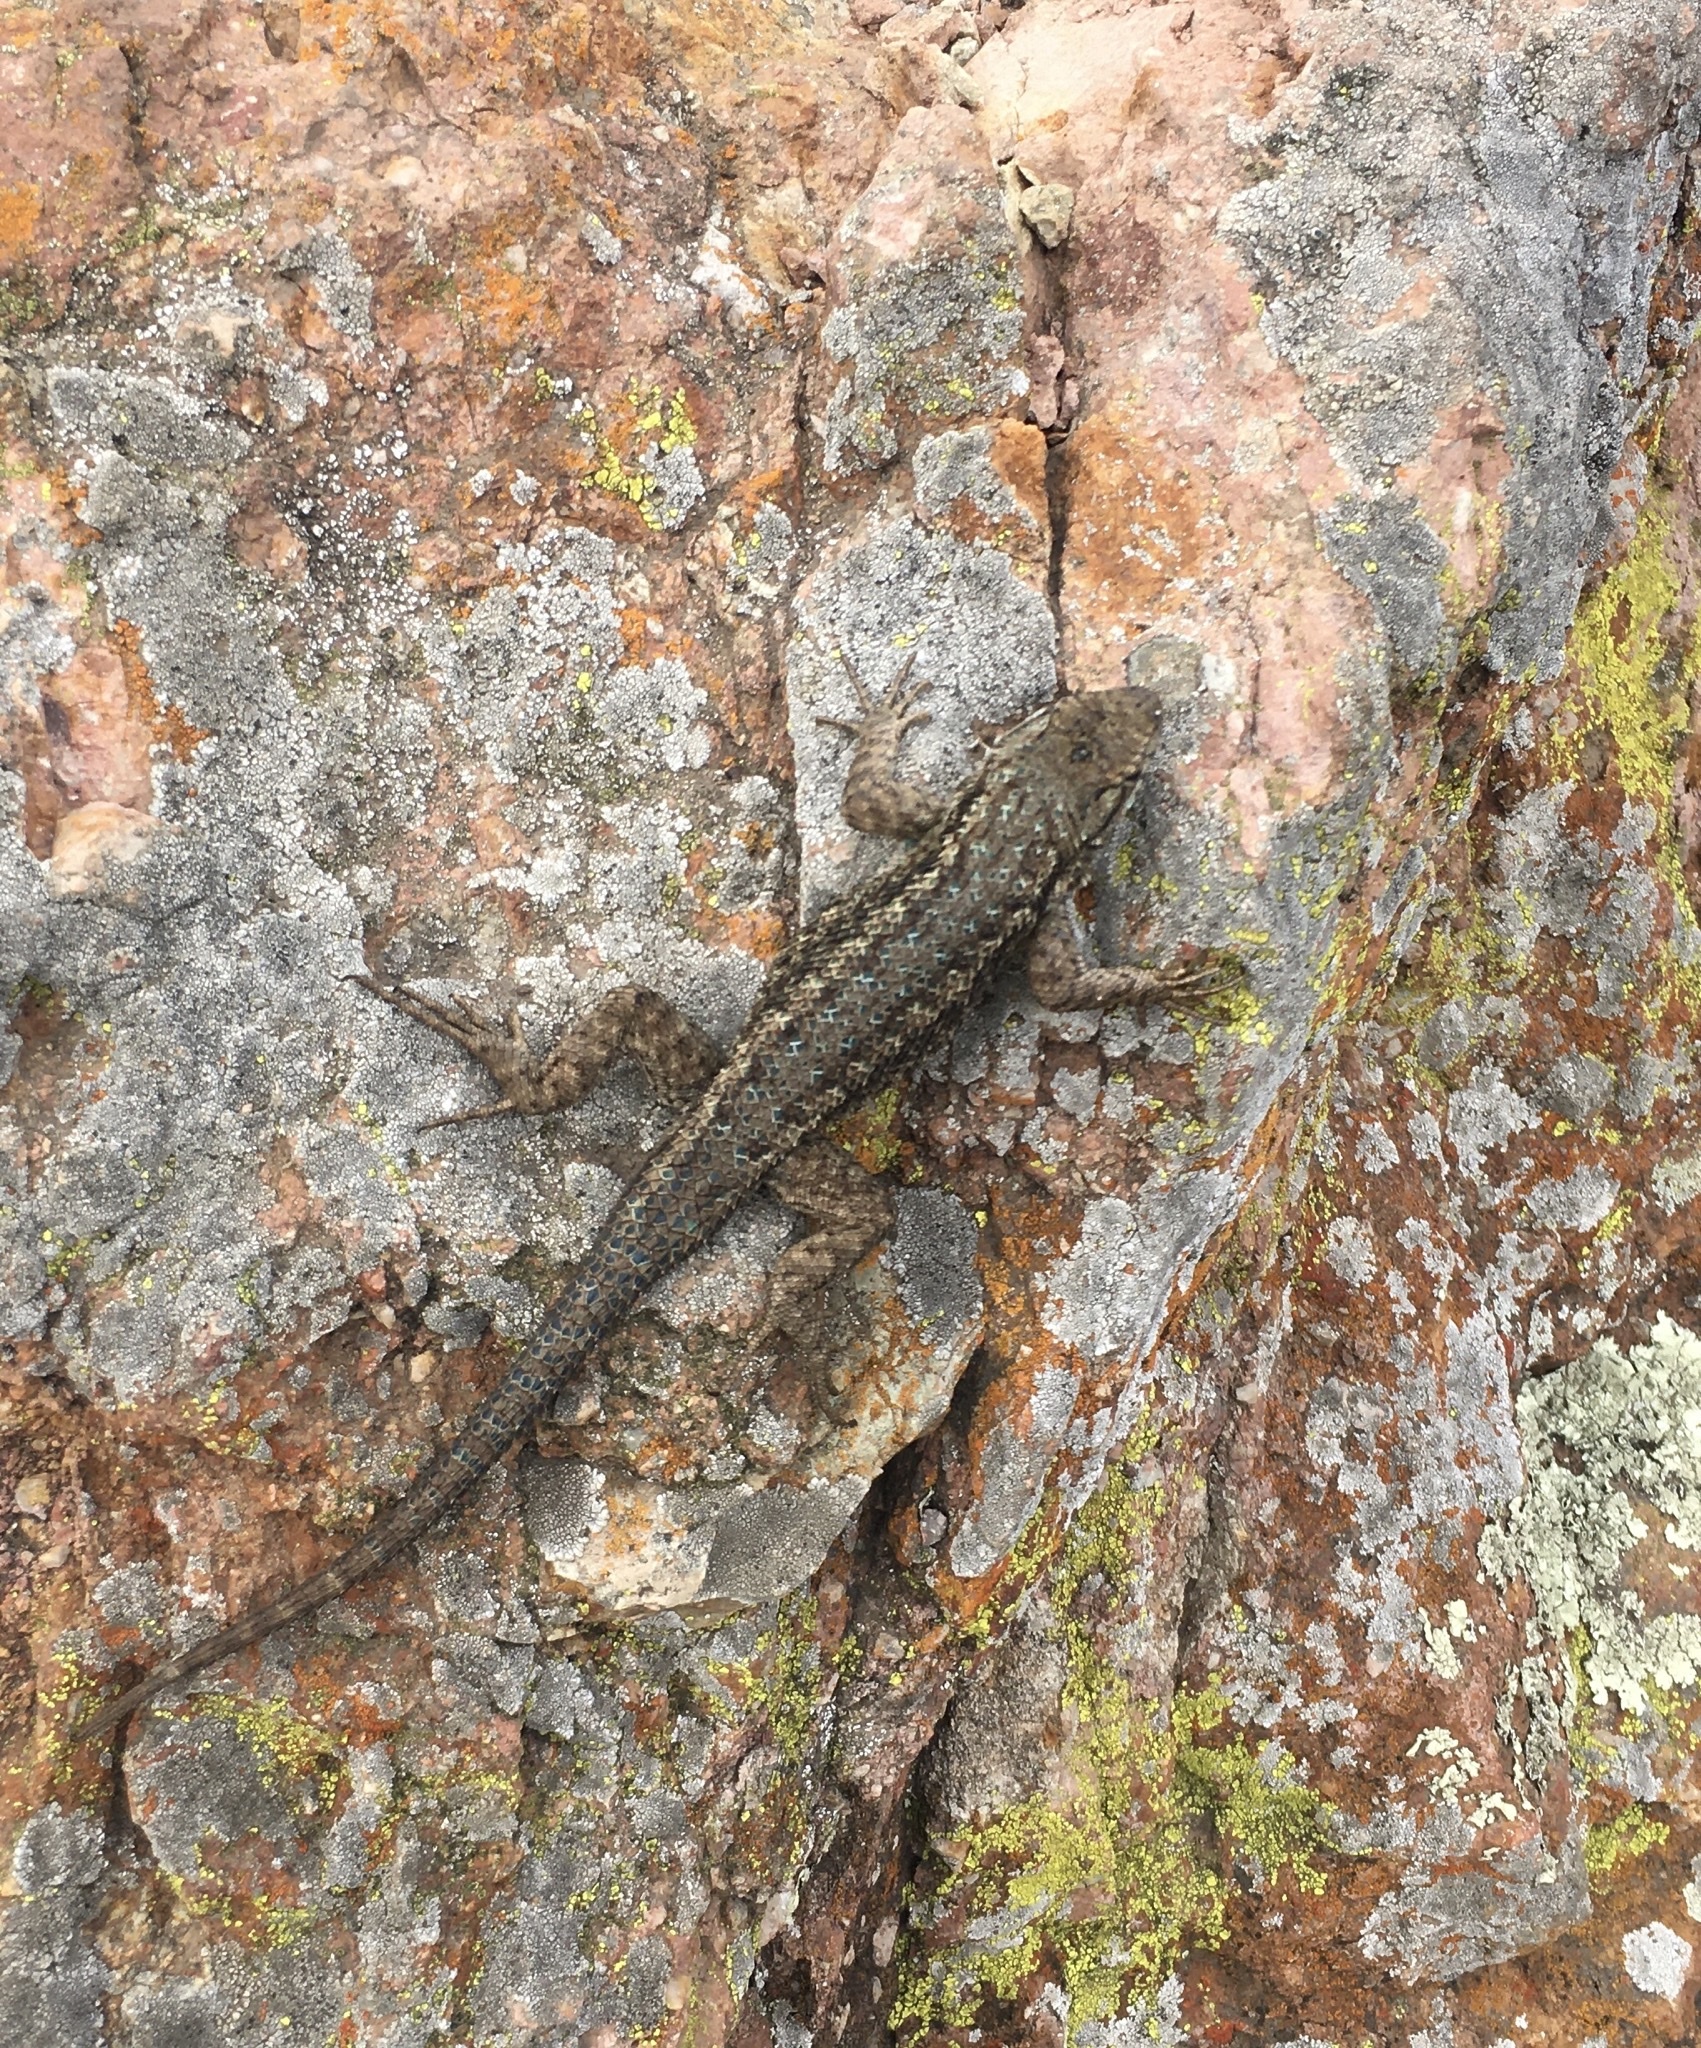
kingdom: Animalia
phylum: Chordata
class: Squamata
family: Phrynosomatidae
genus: Sceloporus
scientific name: Sceloporus becki
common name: Island fence lizard
